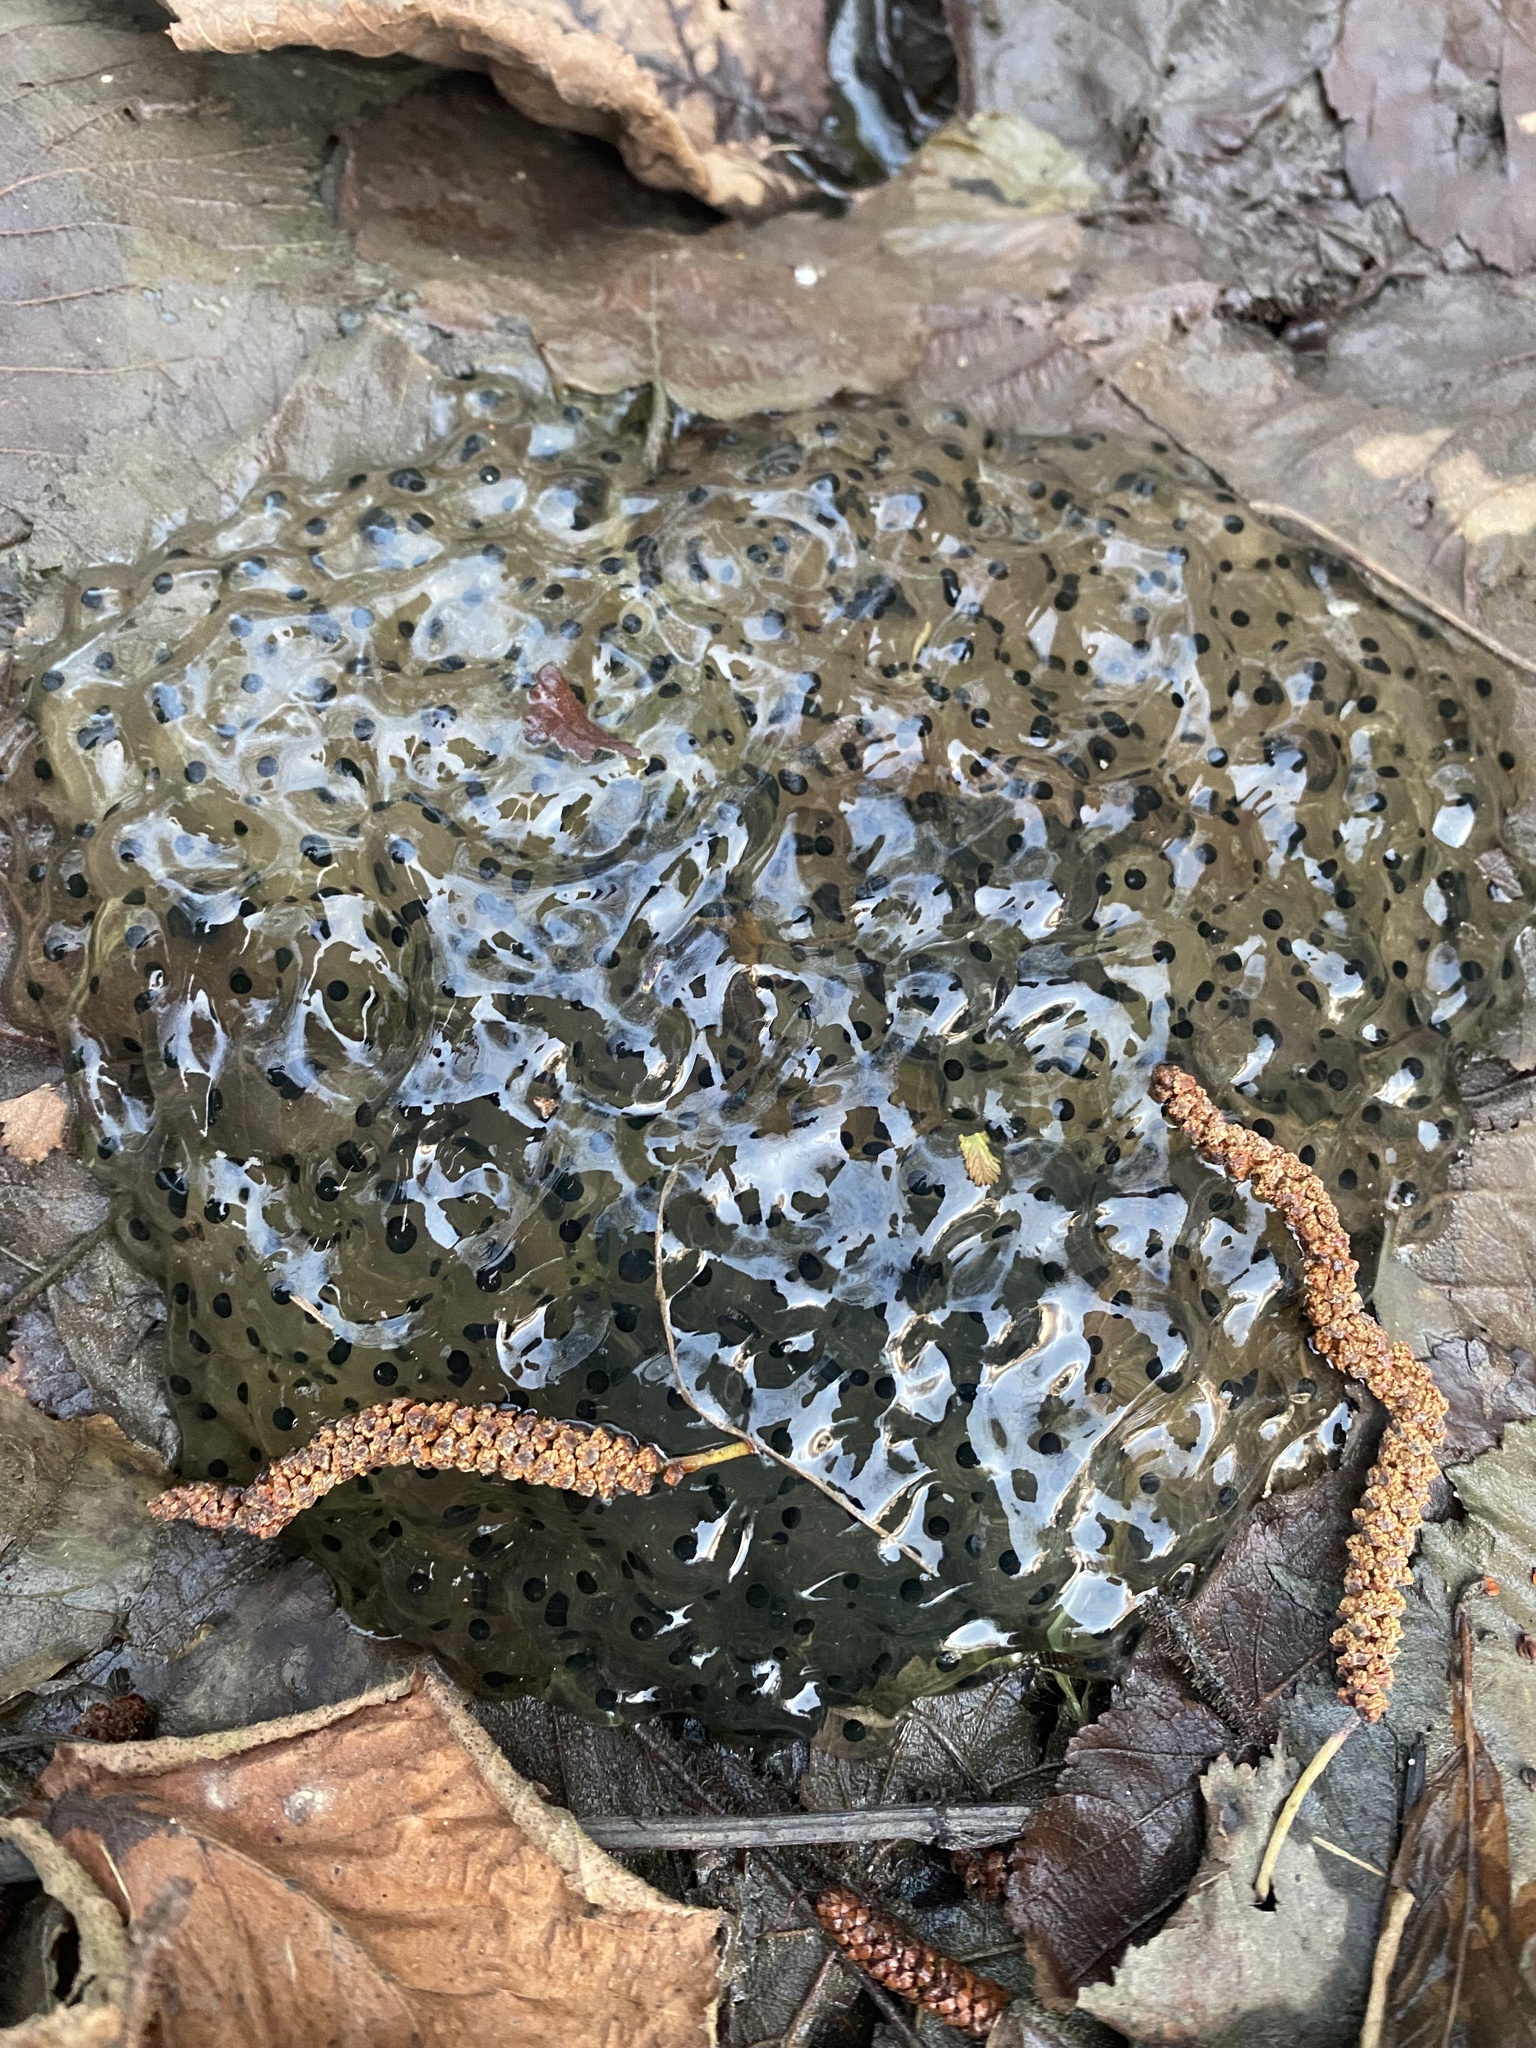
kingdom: Animalia
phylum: Chordata
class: Amphibia
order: Anura
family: Ranidae
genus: Rana
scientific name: Rana macrocnemis
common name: Banded frog
